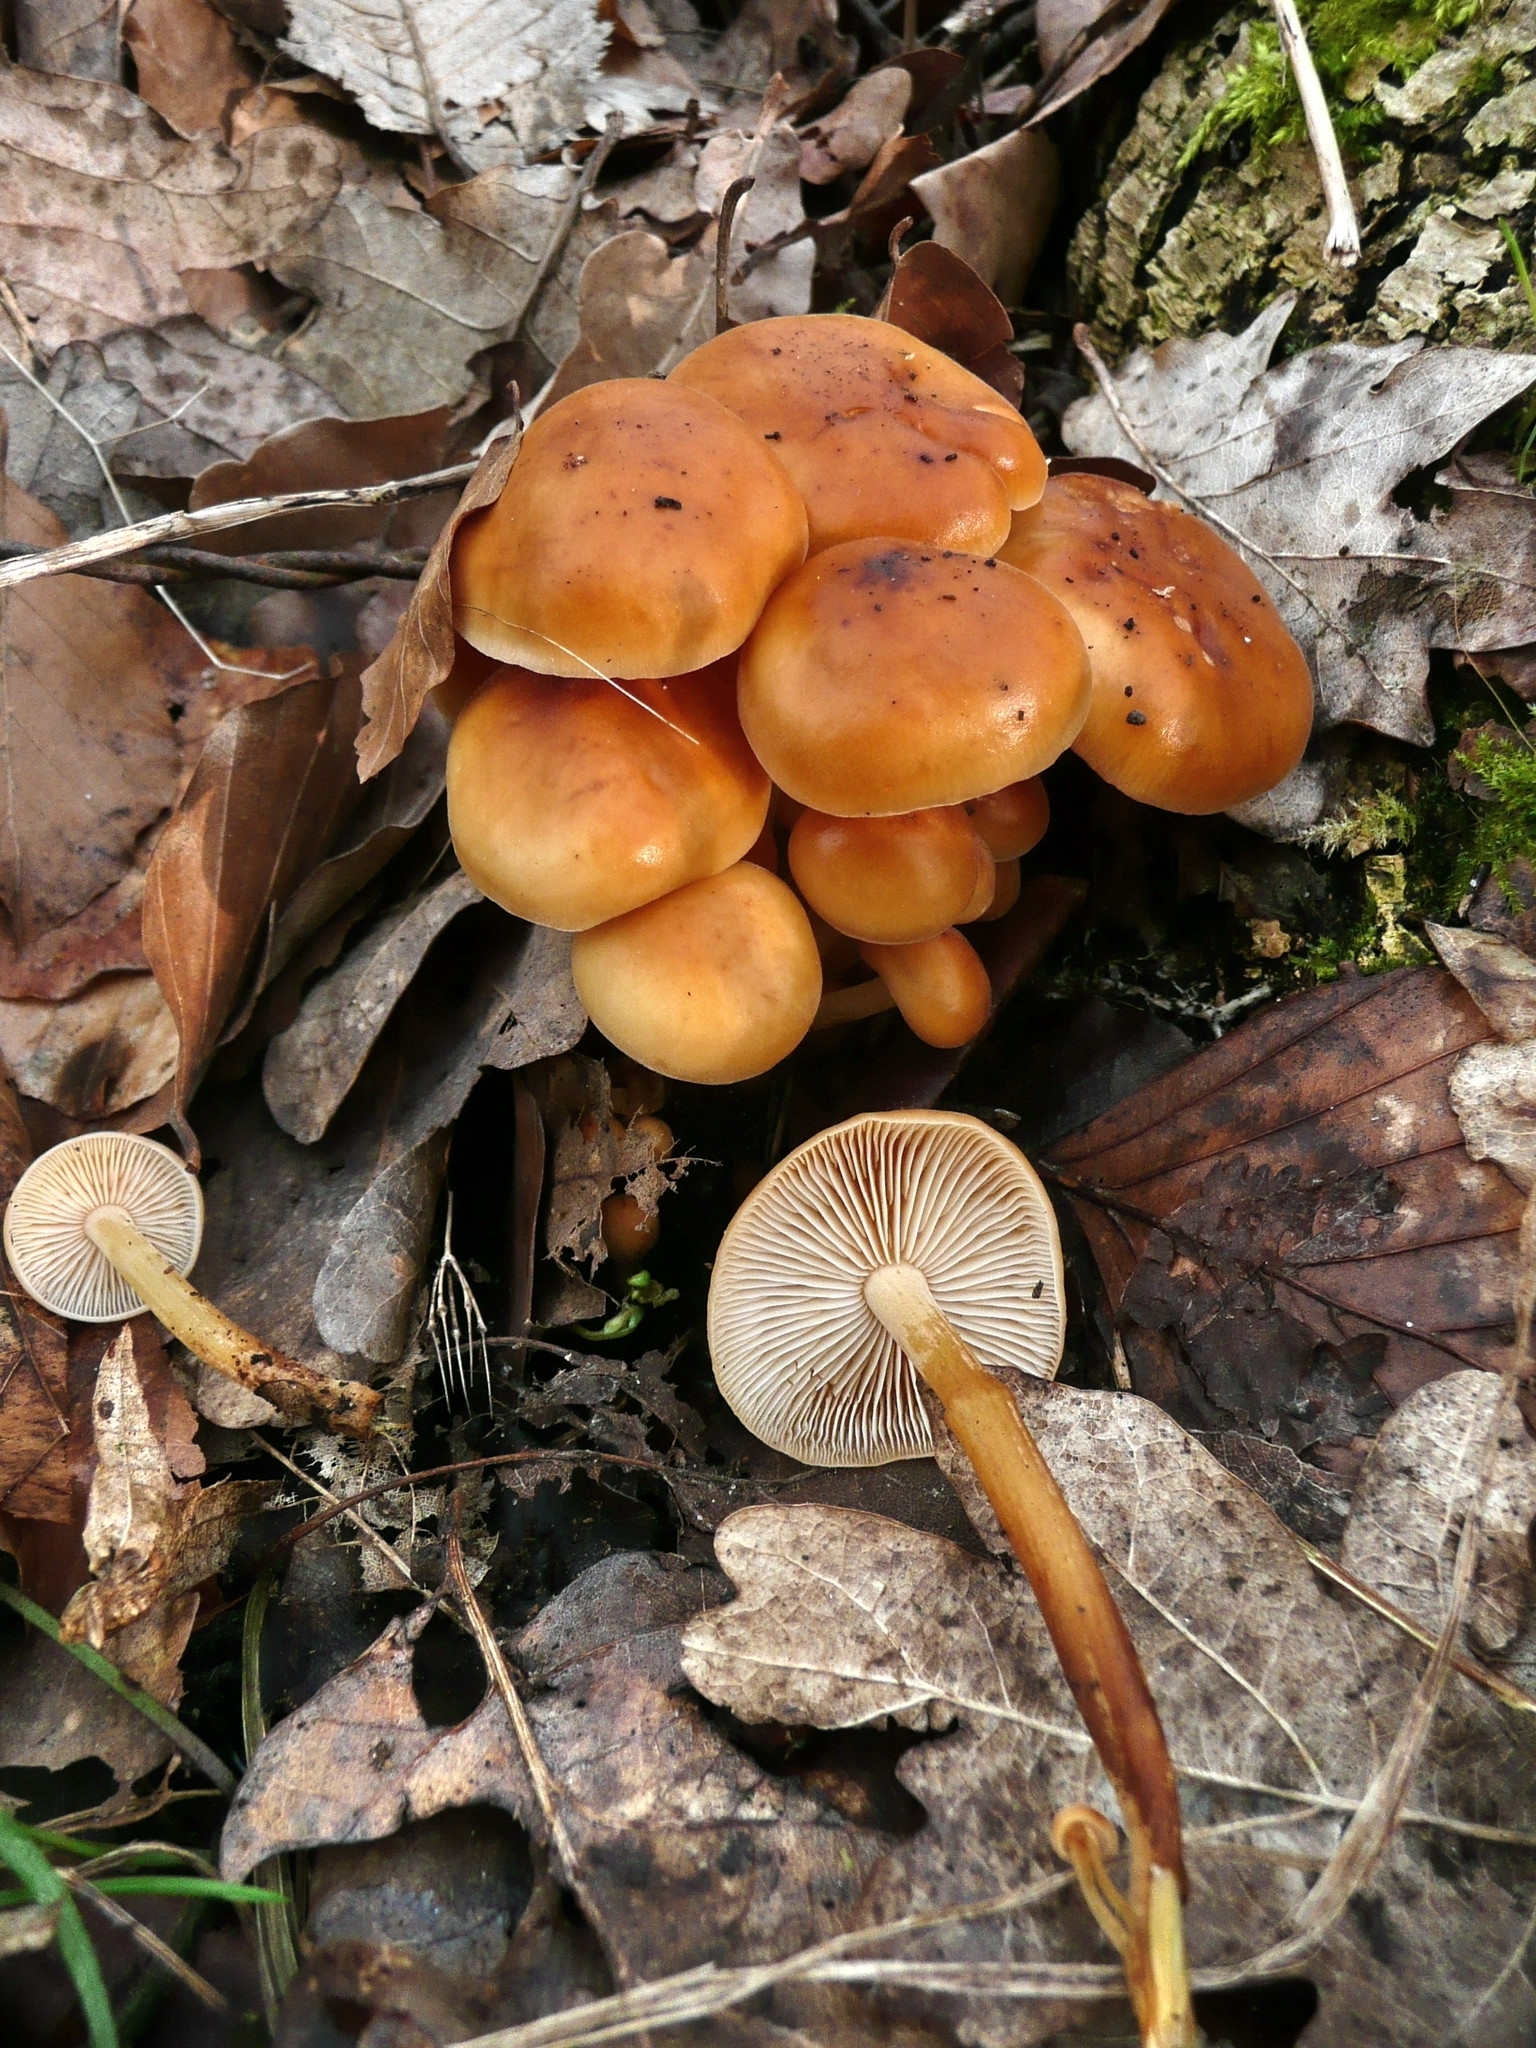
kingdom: Fungi
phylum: Basidiomycota
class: Agaricomycetes
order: Agaricales
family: Physalacriaceae
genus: Flammulina
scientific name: Flammulina
